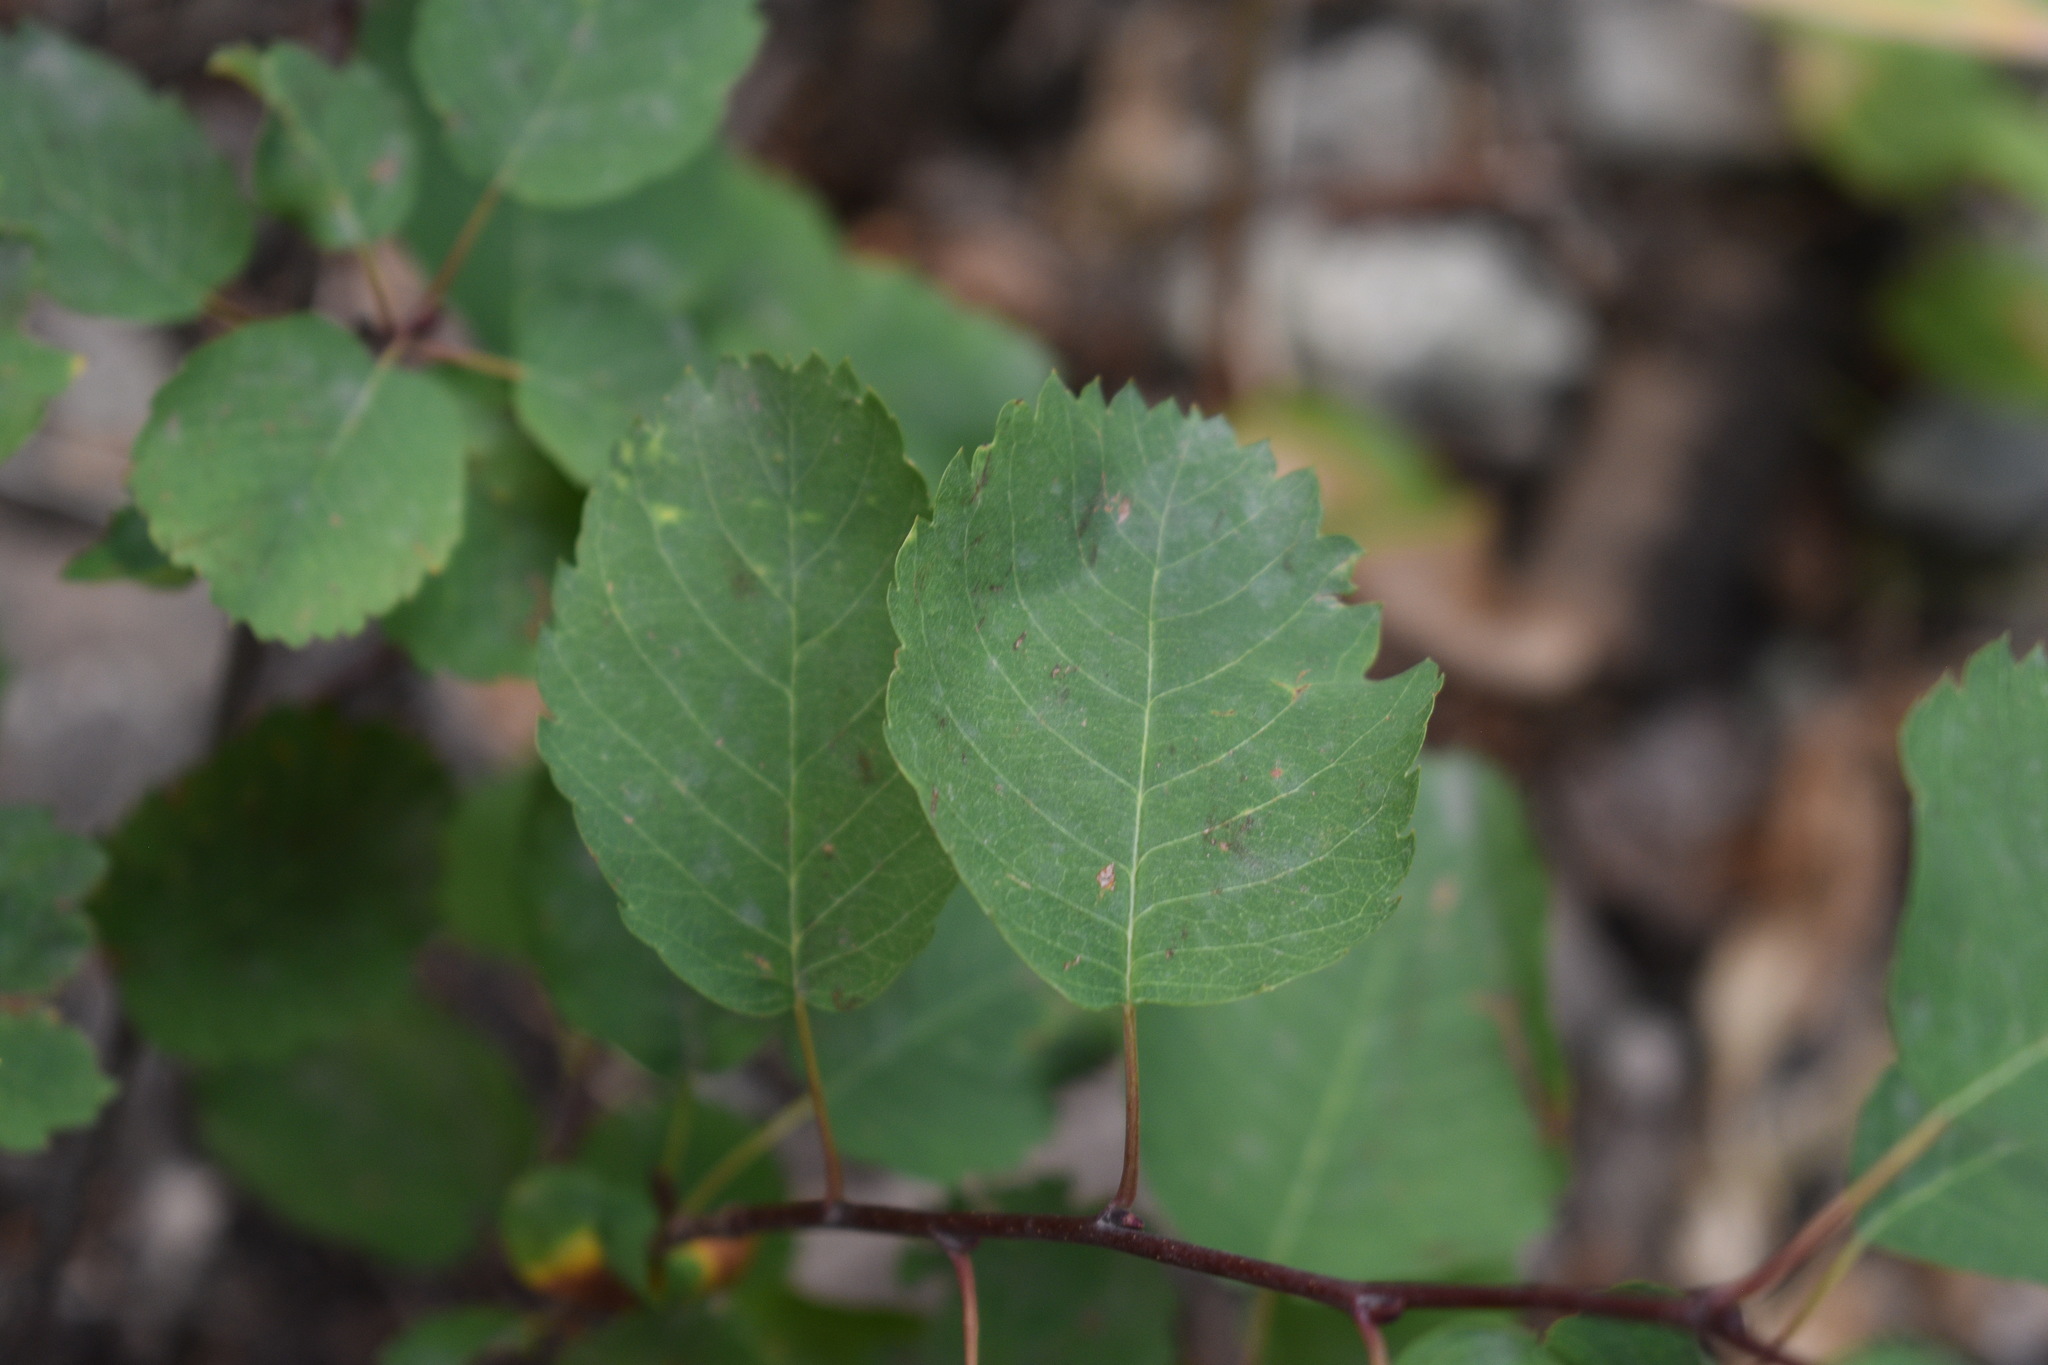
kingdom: Plantae
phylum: Tracheophyta
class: Magnoliopsida
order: Rosales
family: Rosaceae
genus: Amelanchier
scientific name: Amelanchier alnifolia
